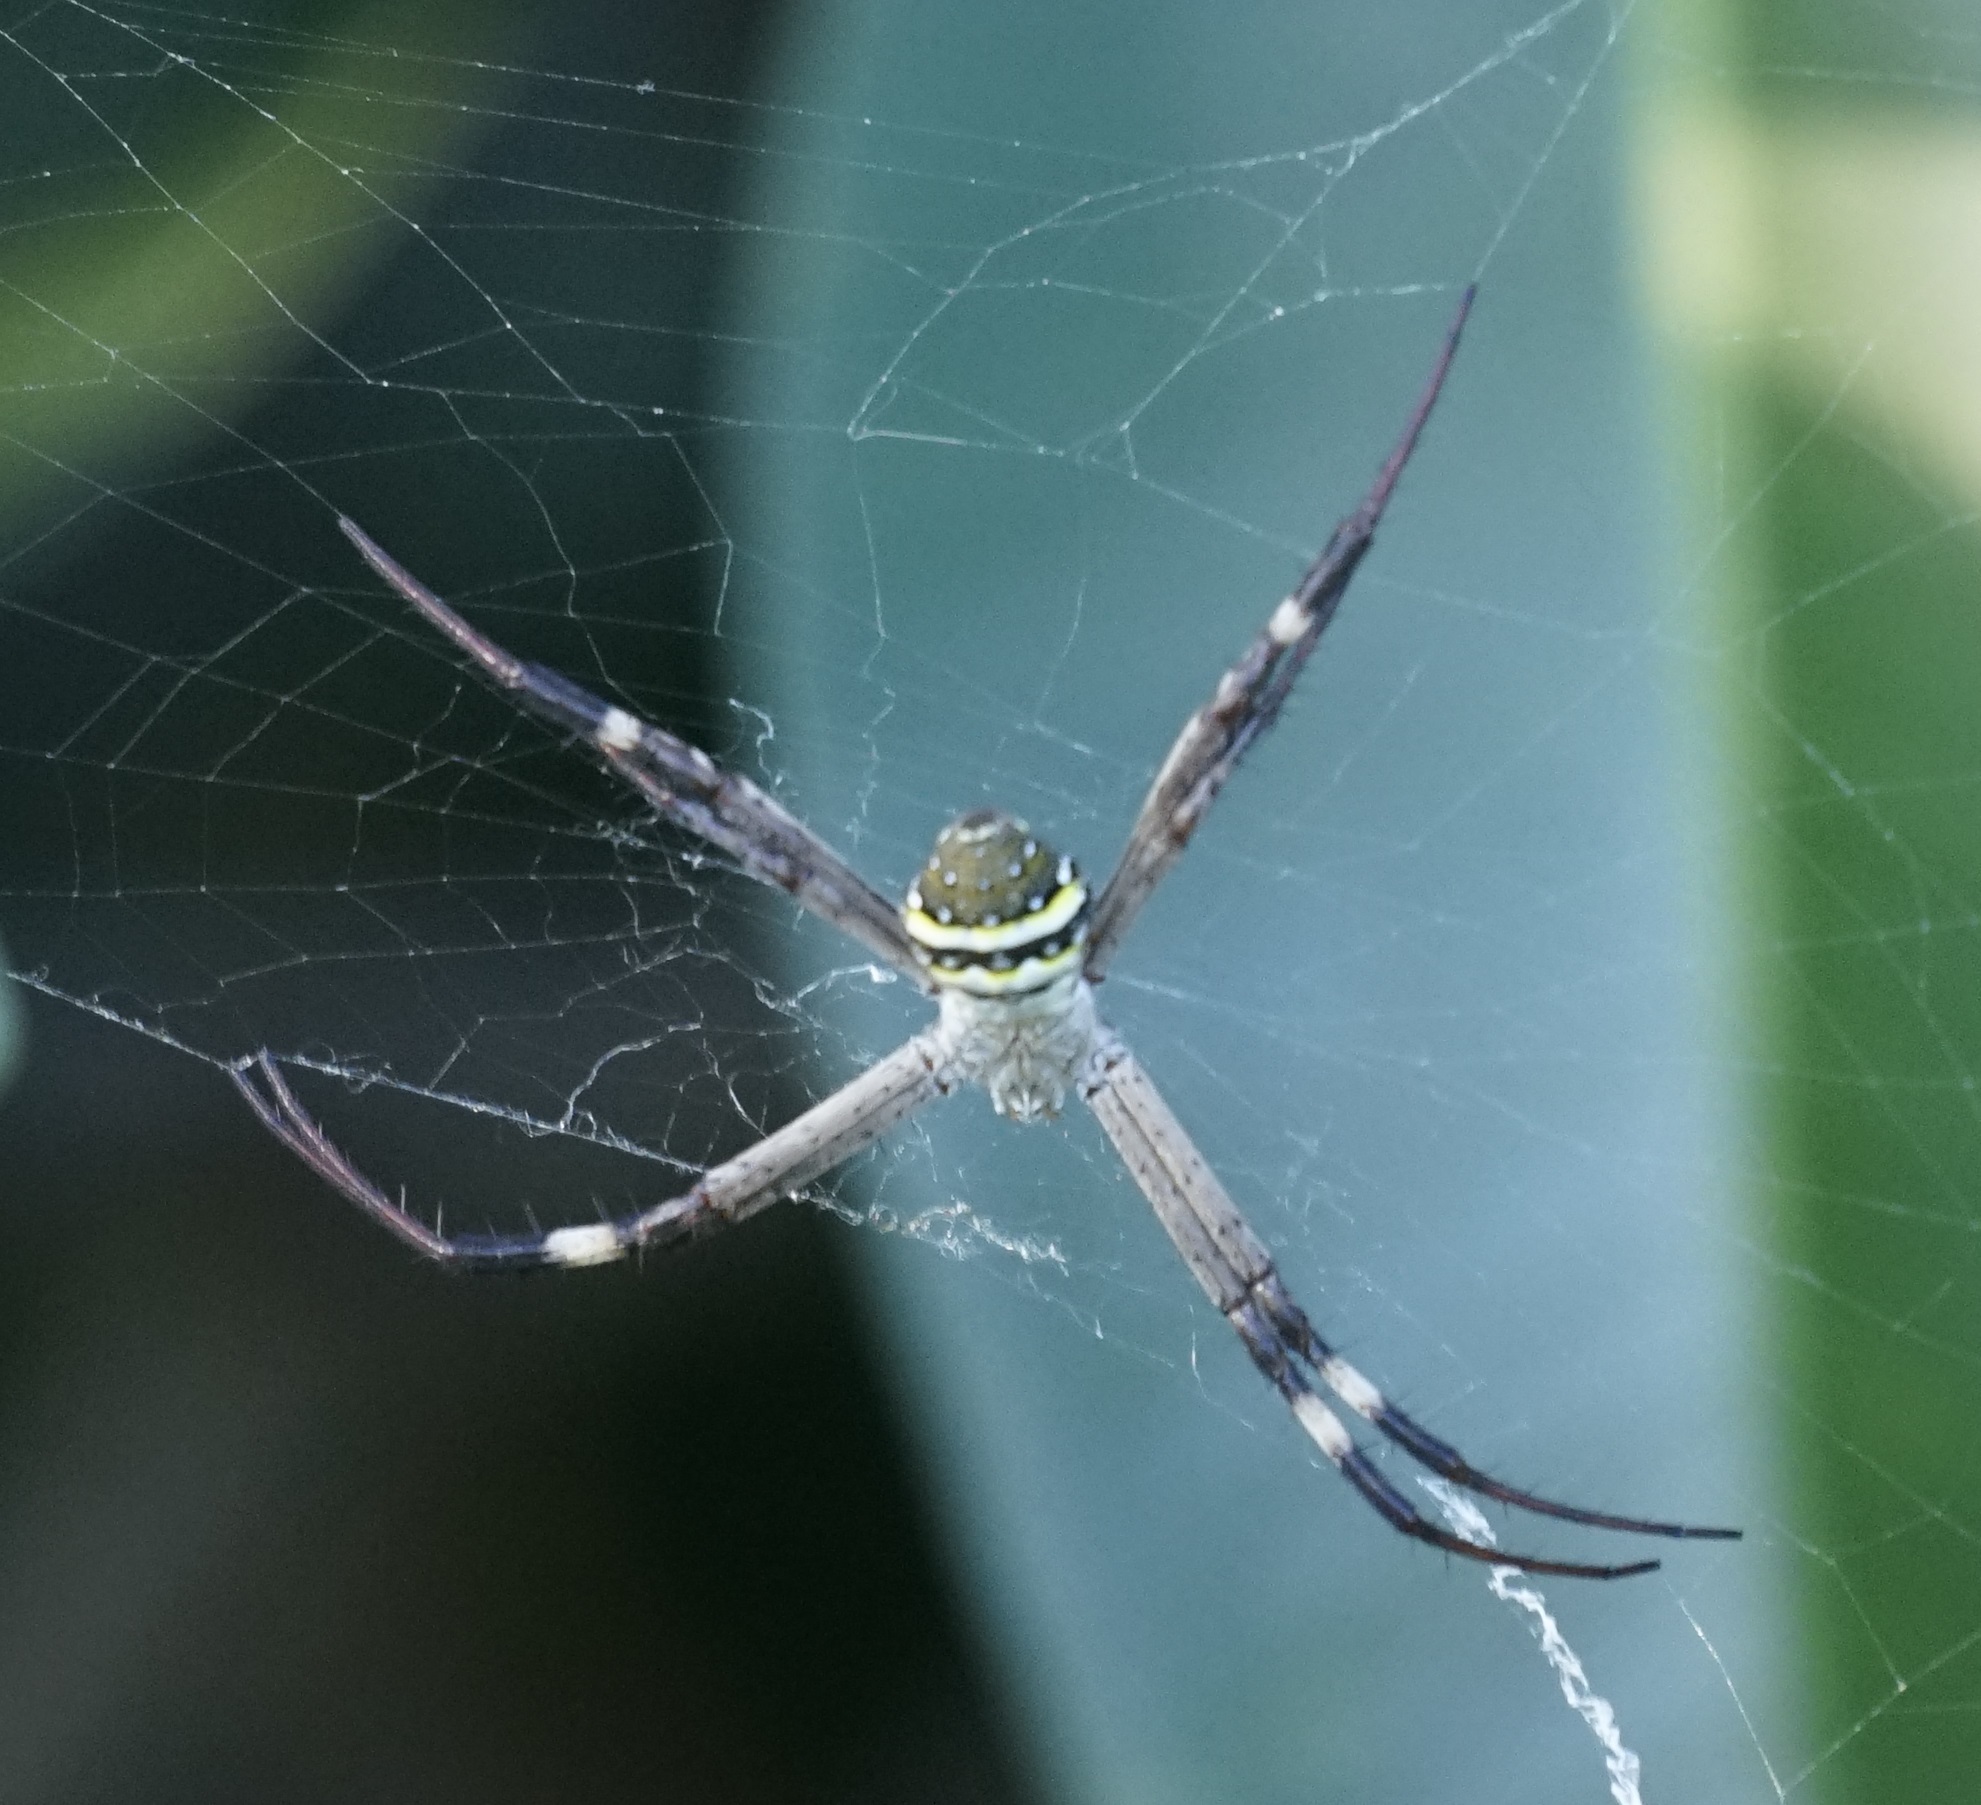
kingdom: Animalia
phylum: Arthropoda
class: Arachnida
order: Araneae
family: Araneidae
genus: Argiope
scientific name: Argiope keyserlingi
